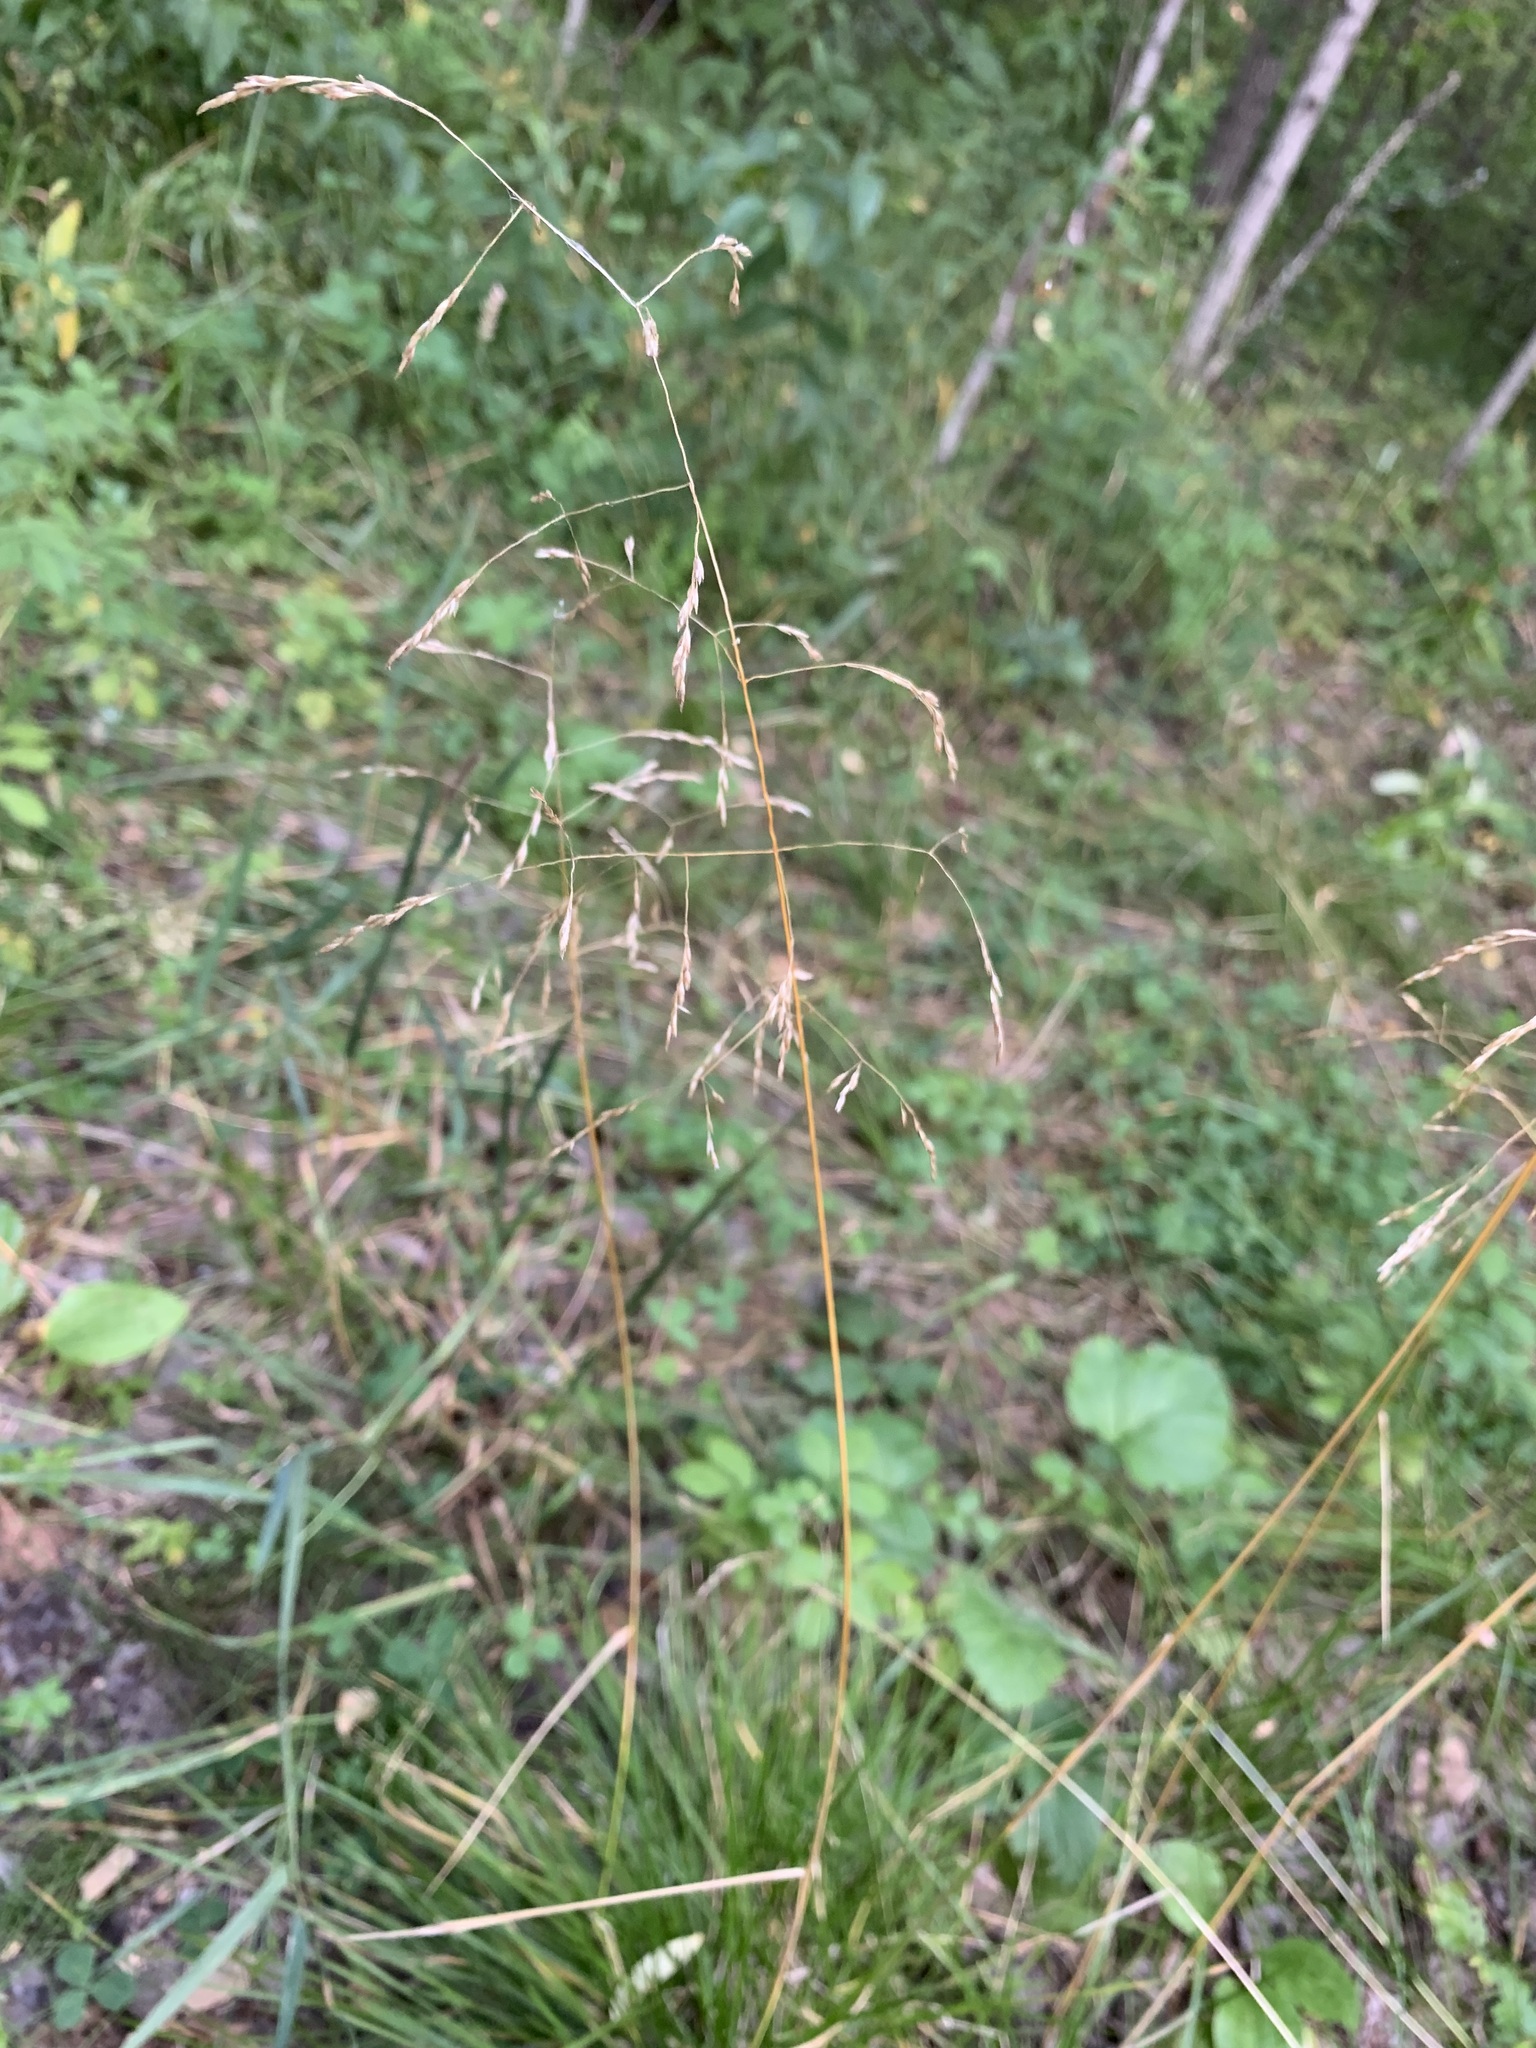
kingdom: Plantae
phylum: Tracheophyta
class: Liliopsida
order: Poales
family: Poaceae
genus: Deschampsia
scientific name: Deschampsia cespitosa
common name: Tufted hair-grass
